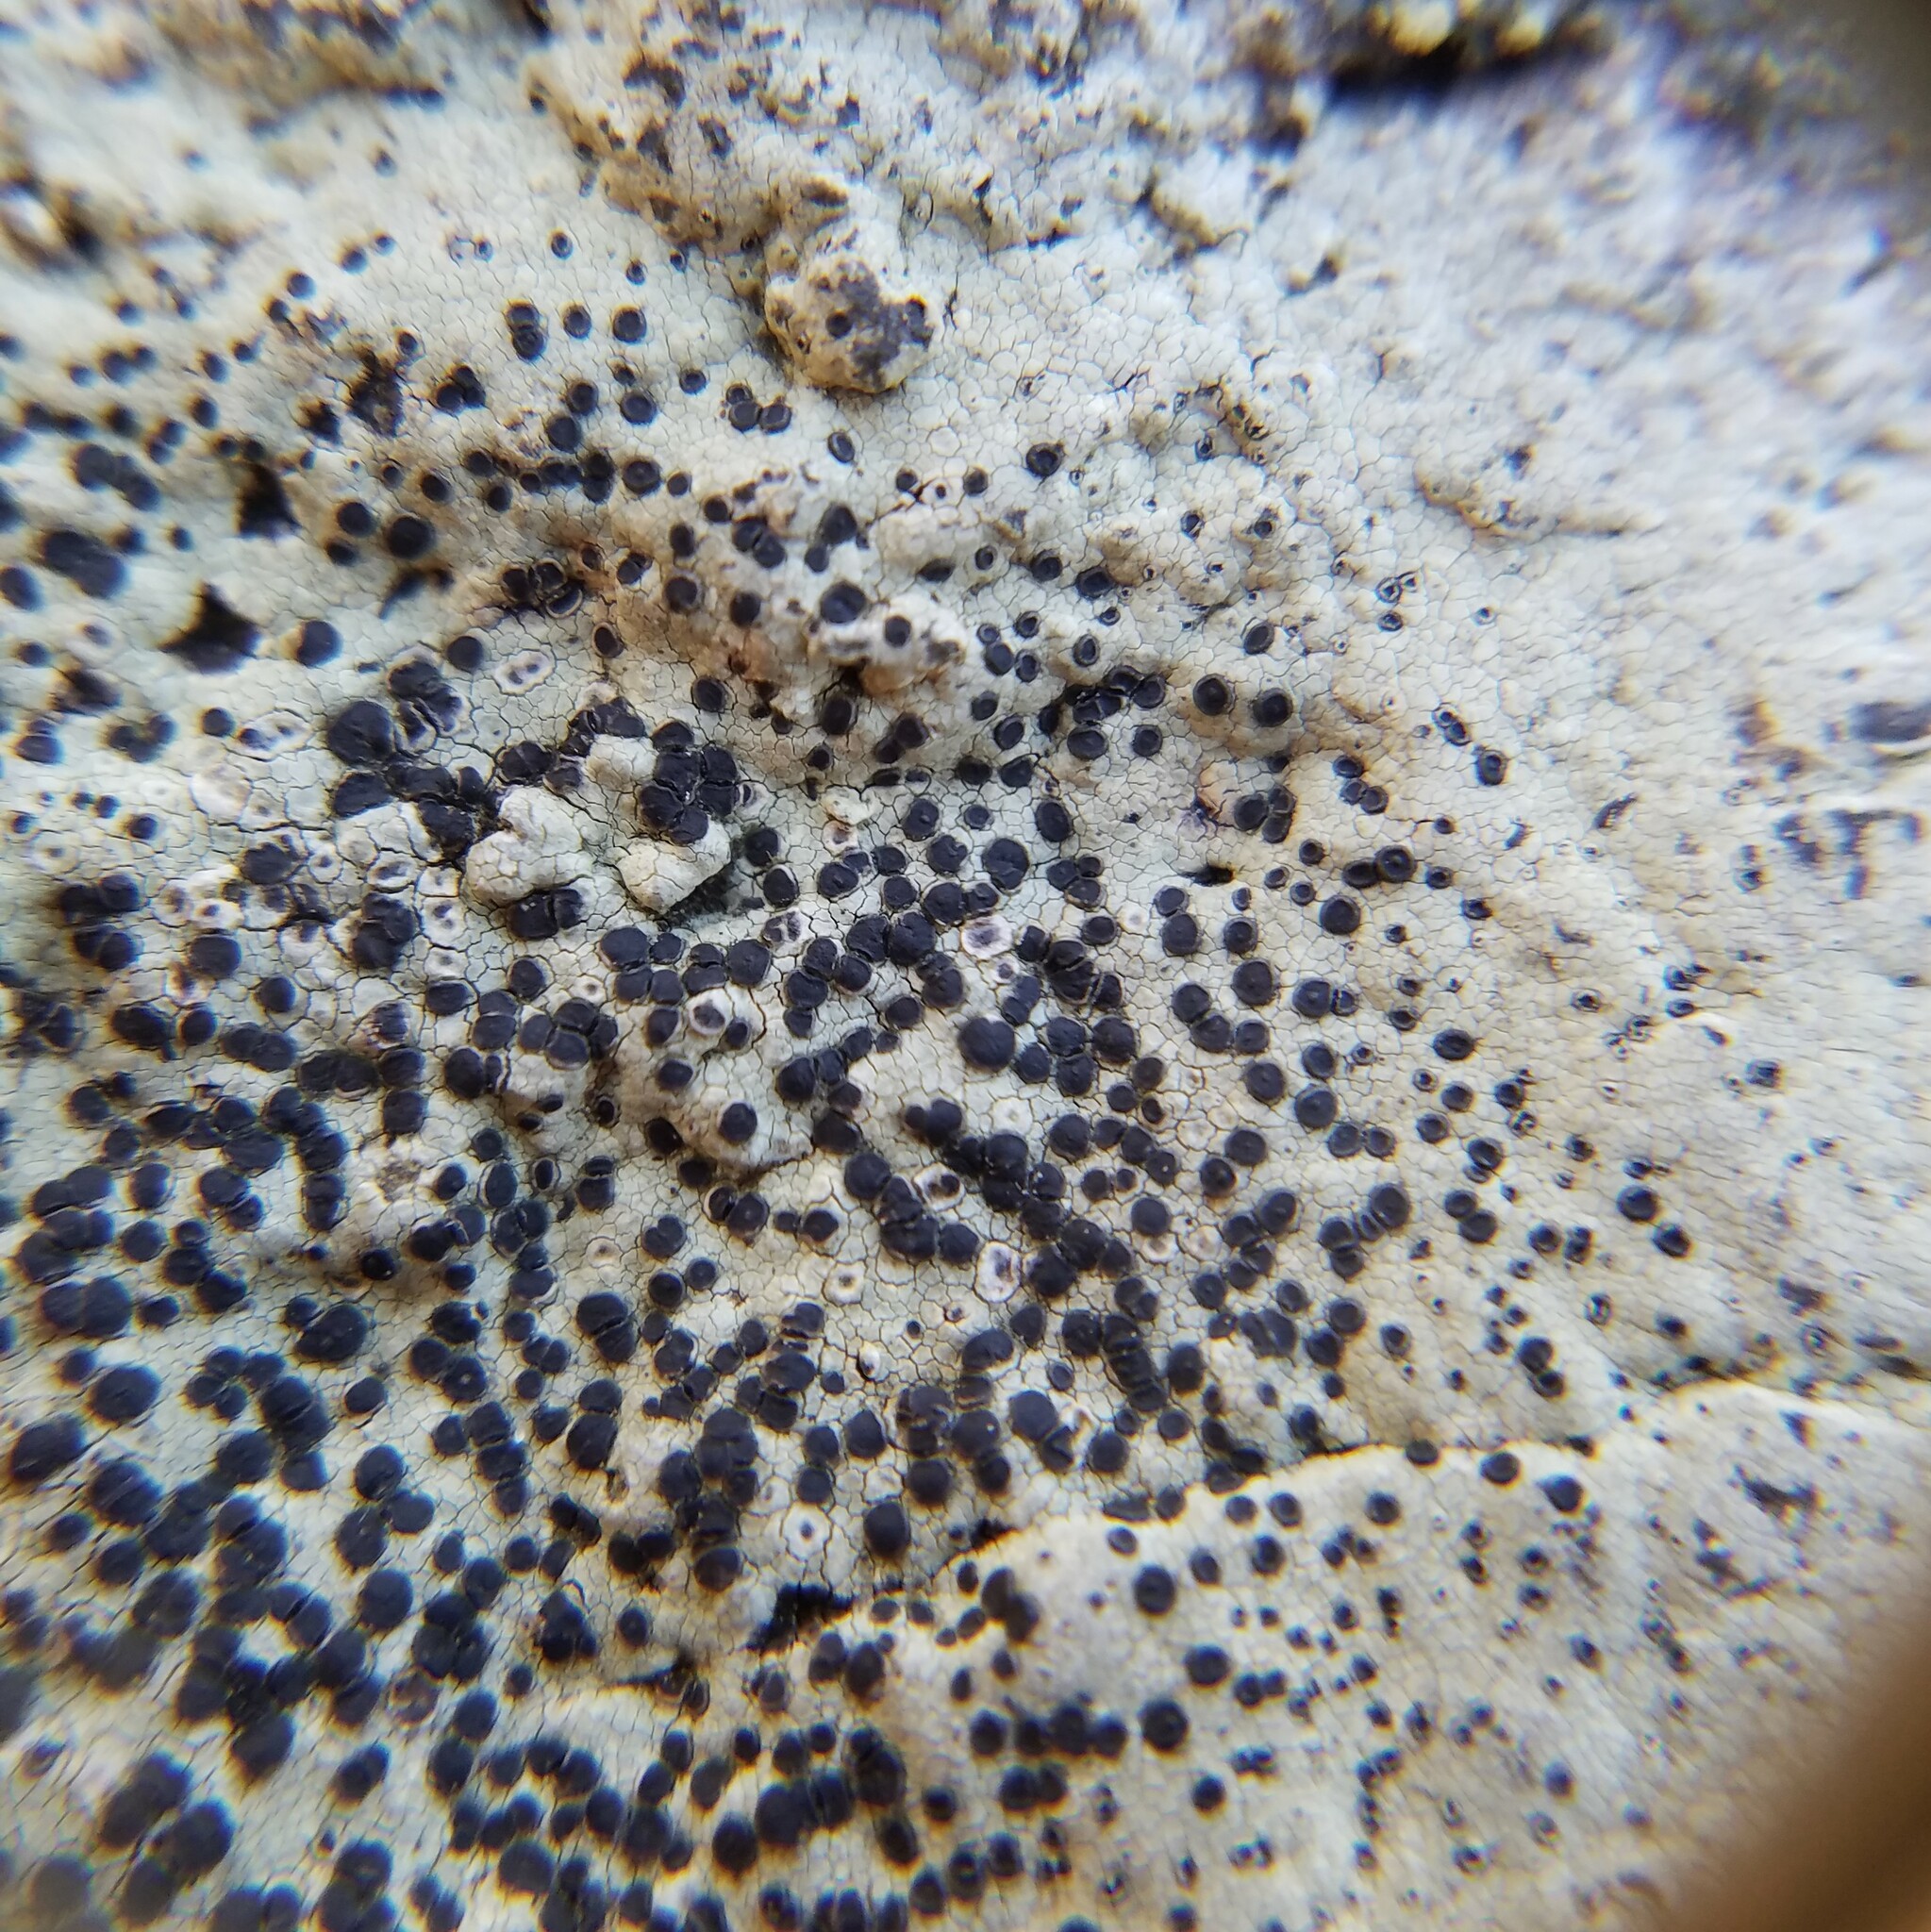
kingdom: Fungi
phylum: Ascomycota
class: Lecanoromycetes
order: Caliciales
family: Caliciaceae
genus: Buellia
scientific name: Buellia mamillana
